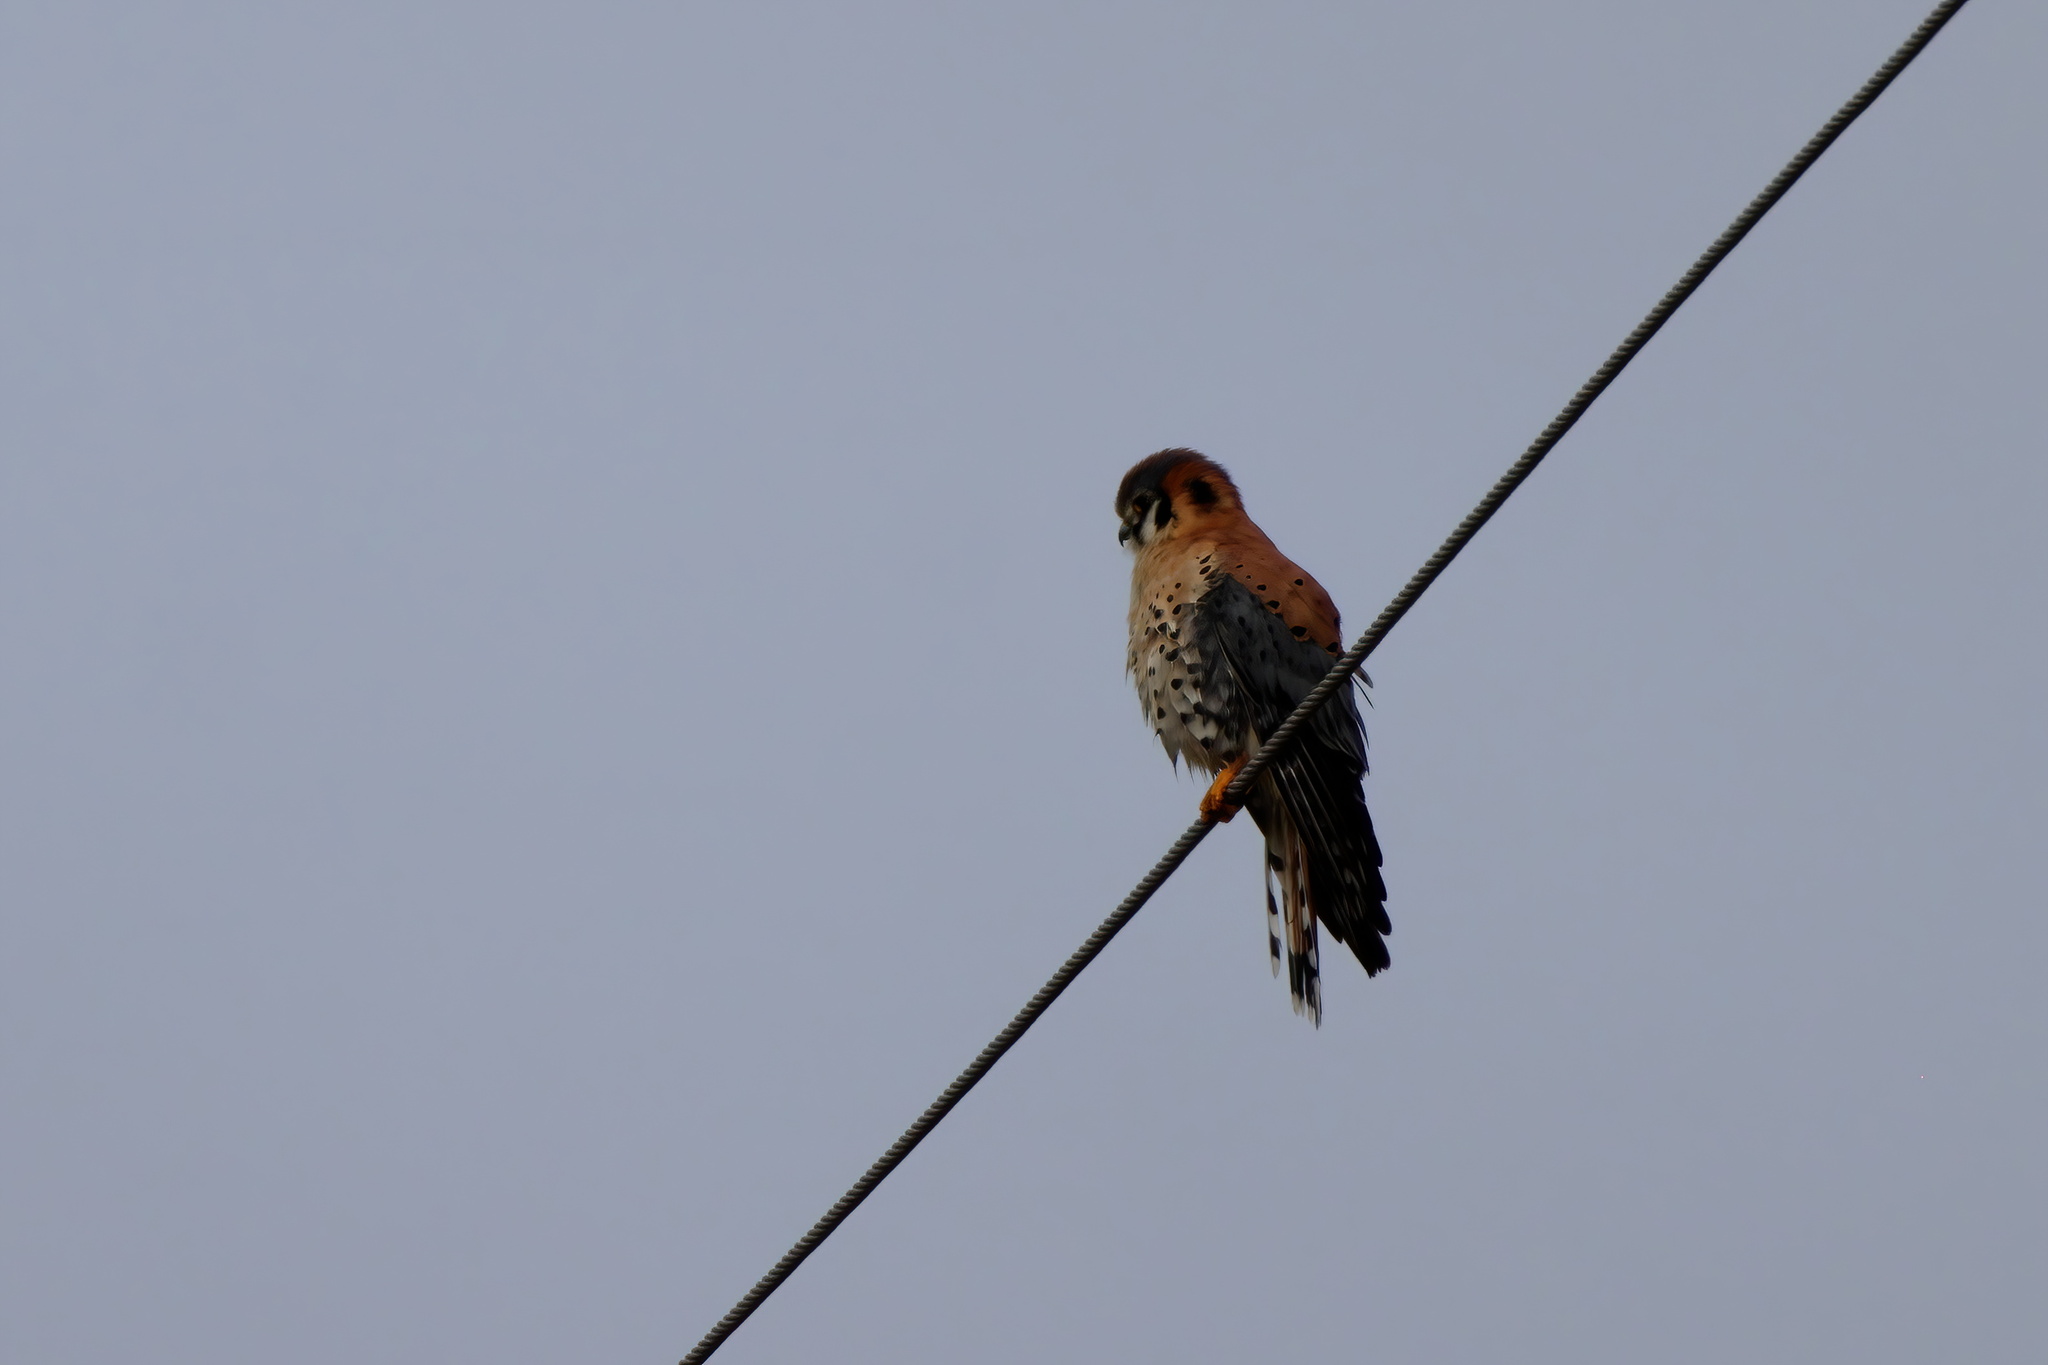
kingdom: Animalia
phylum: Chordata
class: Aves
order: Falconiformes
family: Falconidae
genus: Falco
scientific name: Falco sparverius
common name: American kestrel
